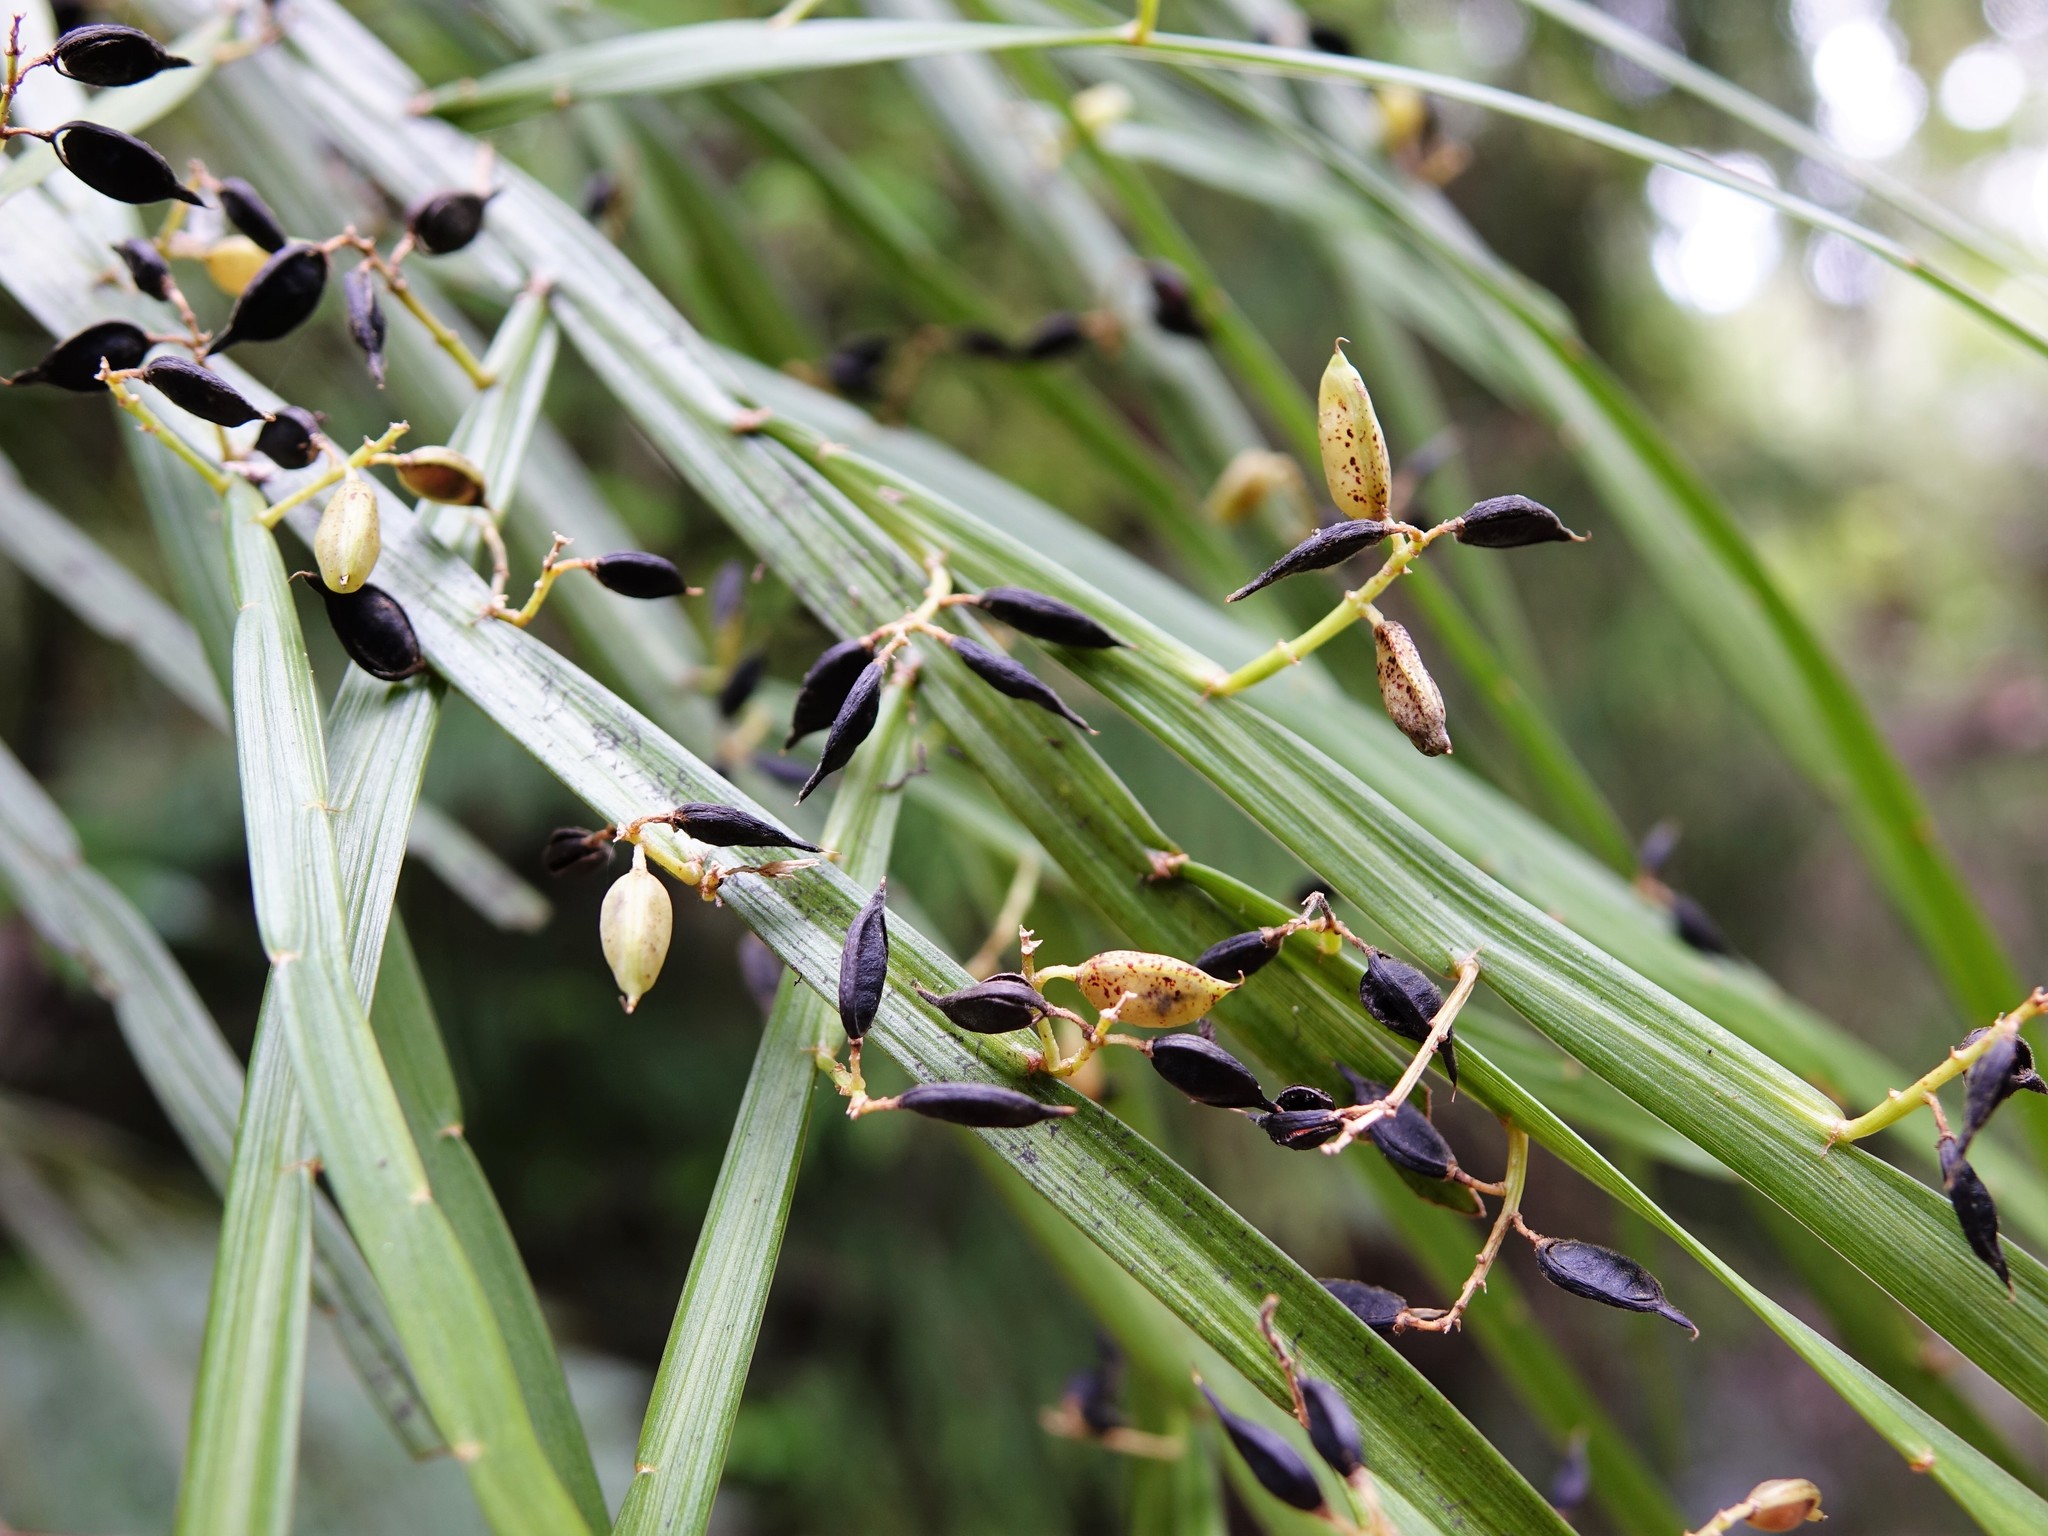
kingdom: Plantae
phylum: Tracheophyta
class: Magnoliopsida
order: Fabales
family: Fabaceae
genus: Carmichaelia
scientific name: Carmichaelia australis
